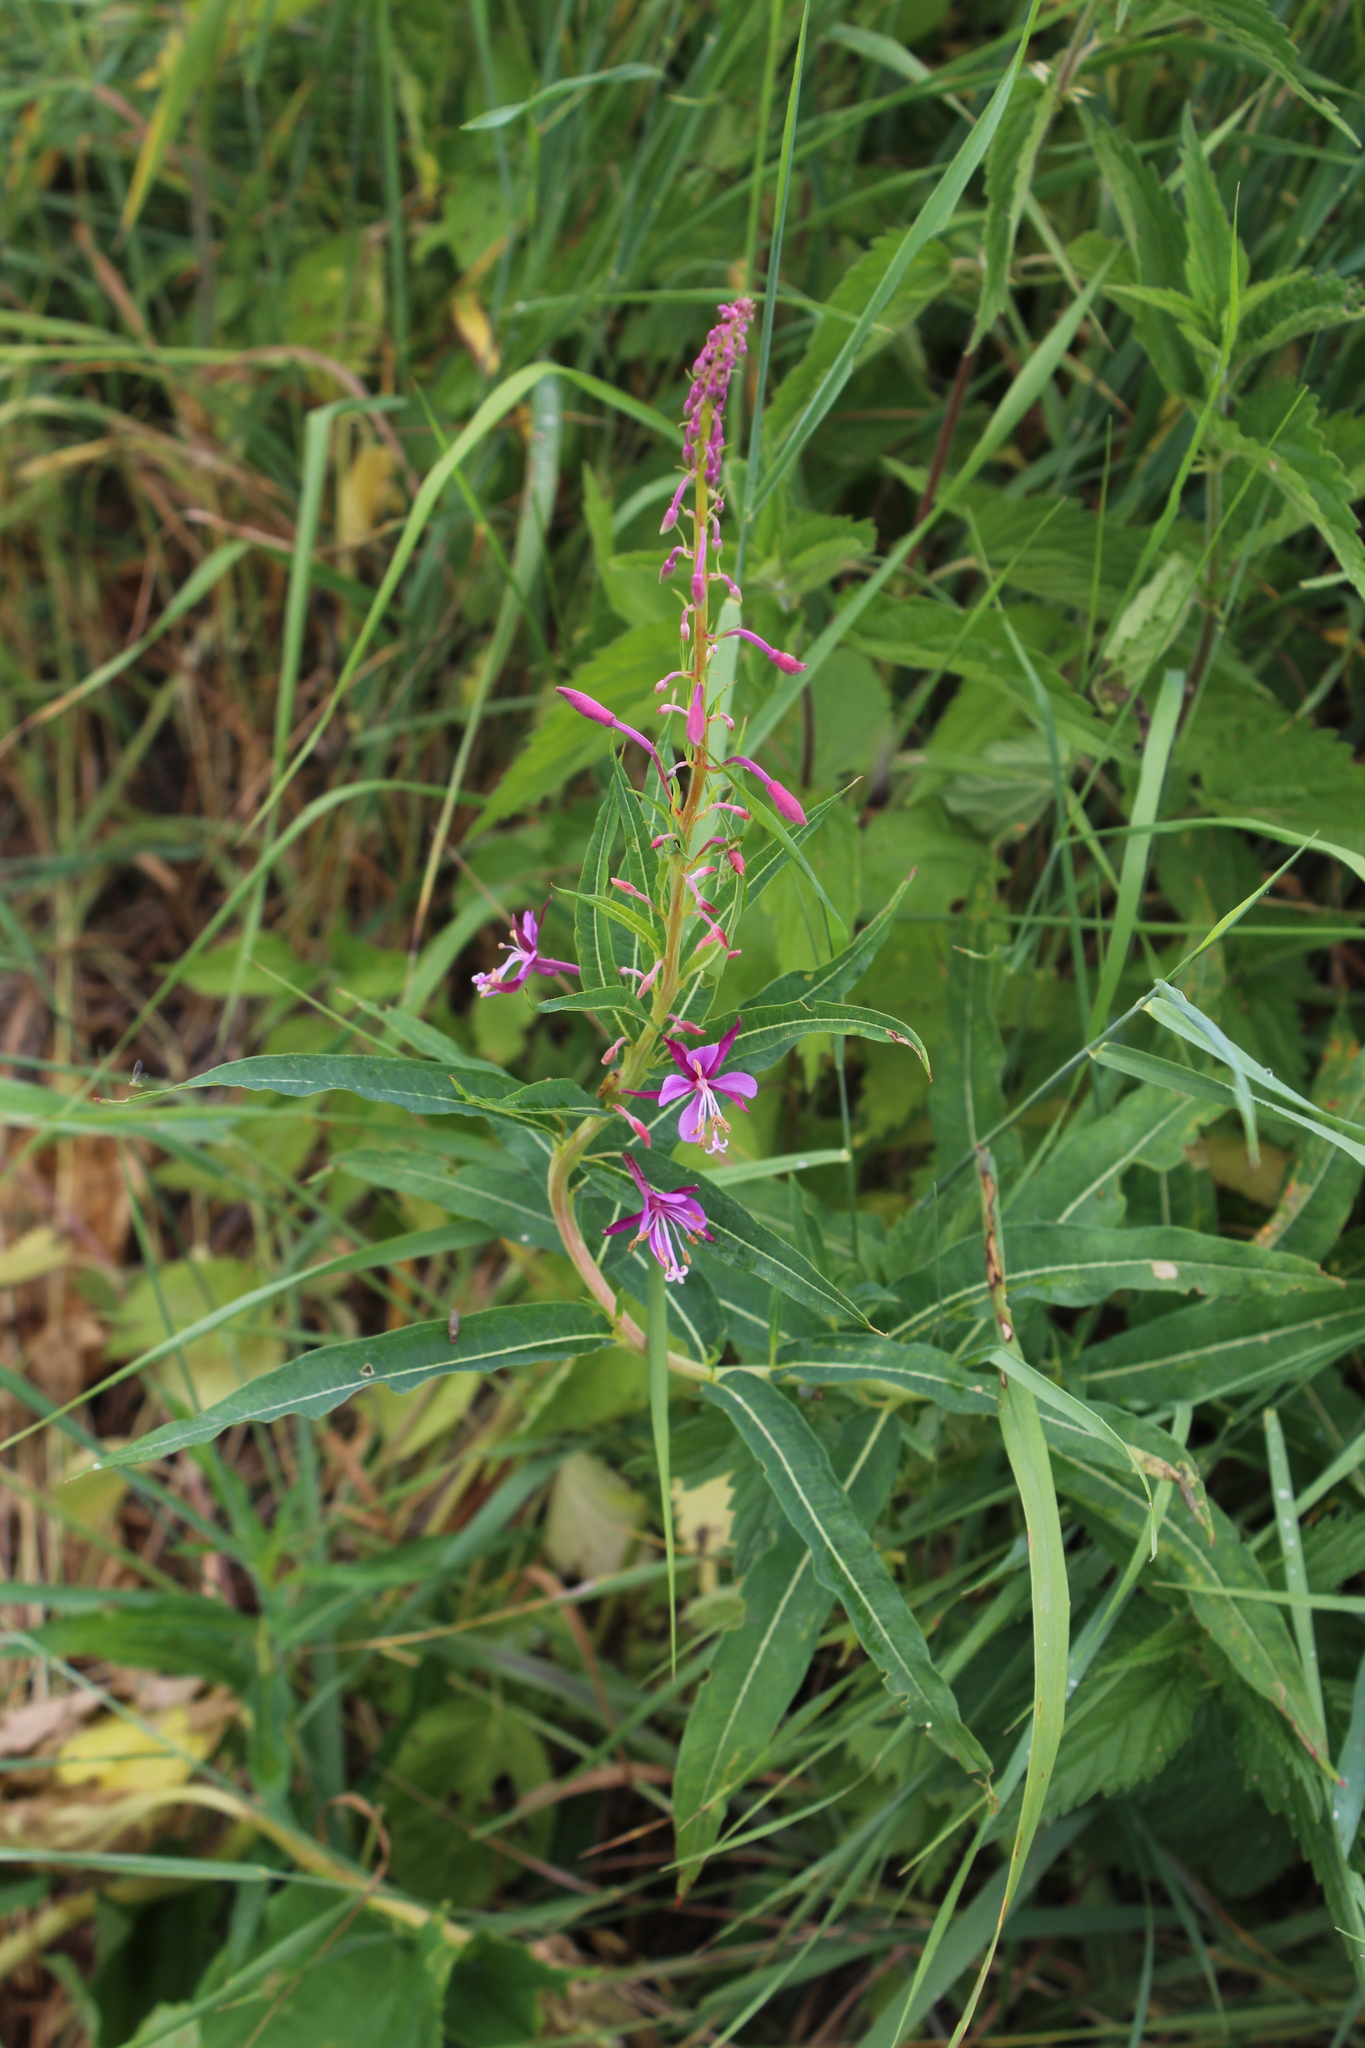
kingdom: Plantae
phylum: Tracheophyta
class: Magnoliopsida
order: Myrtales
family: Onagraceae
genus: Chamaenerion
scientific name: Chamaenerion angustifolium
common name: Fireweed
